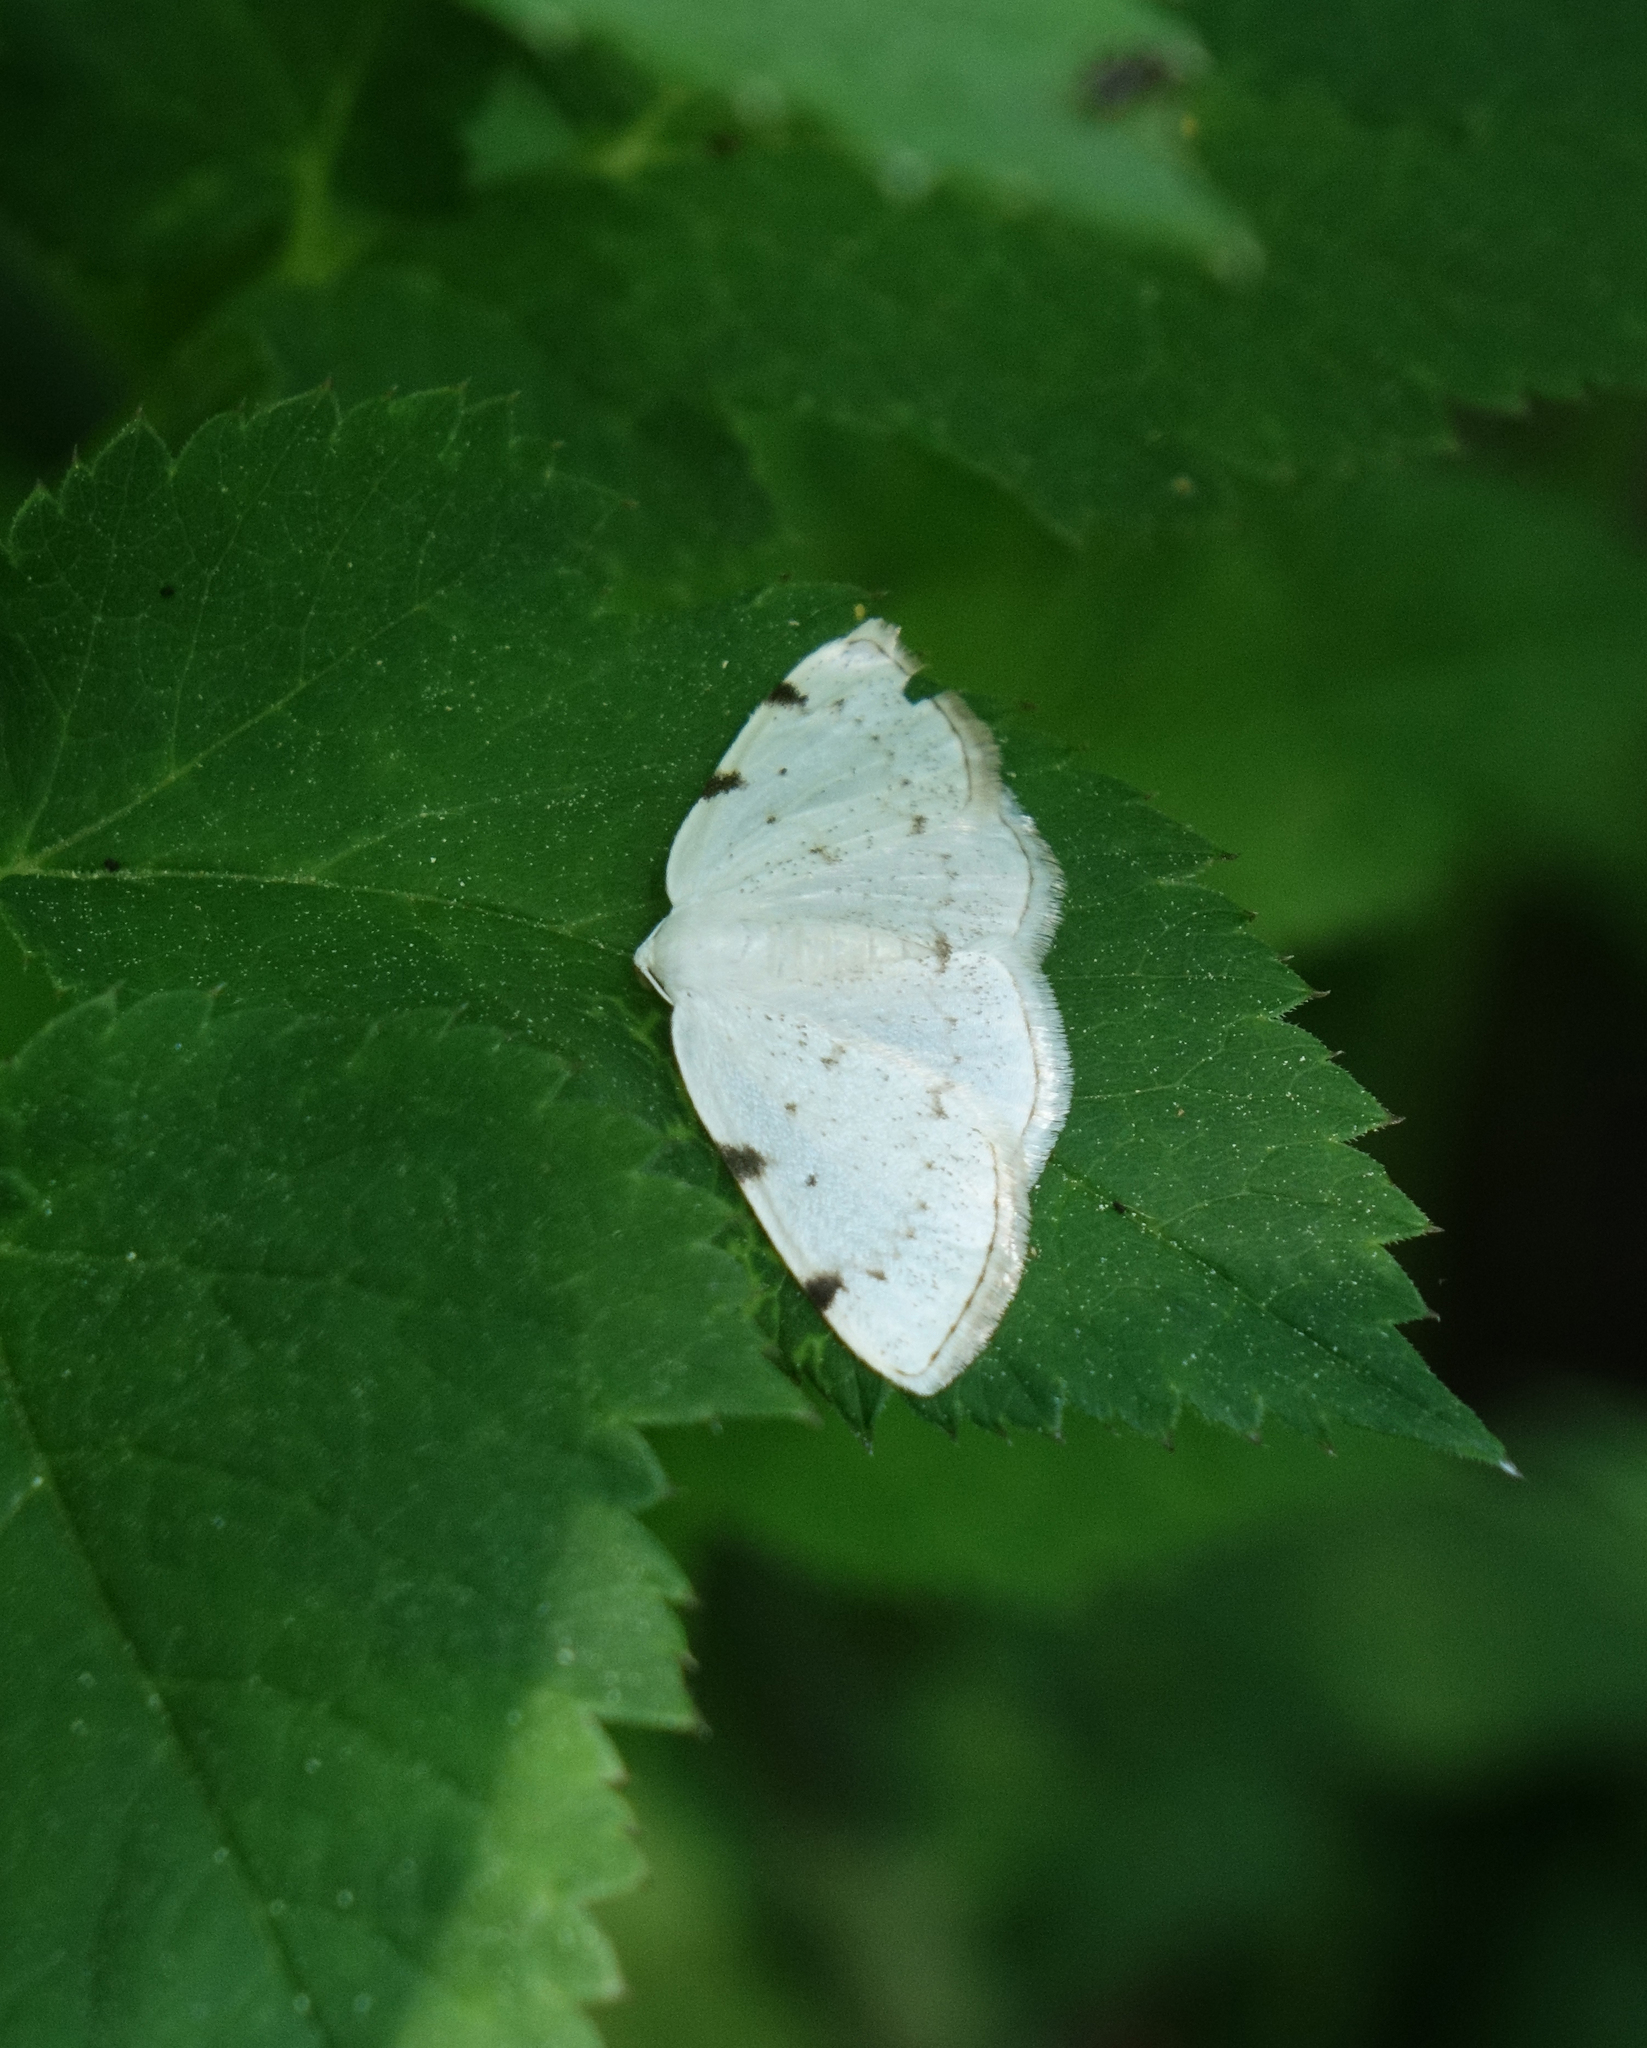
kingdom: Animalia
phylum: Arthropoda
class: Insecta
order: Lepidoptera
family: Geometridae
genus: Lomographa
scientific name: Lomographa bimaculata
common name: White-pinion spotted
